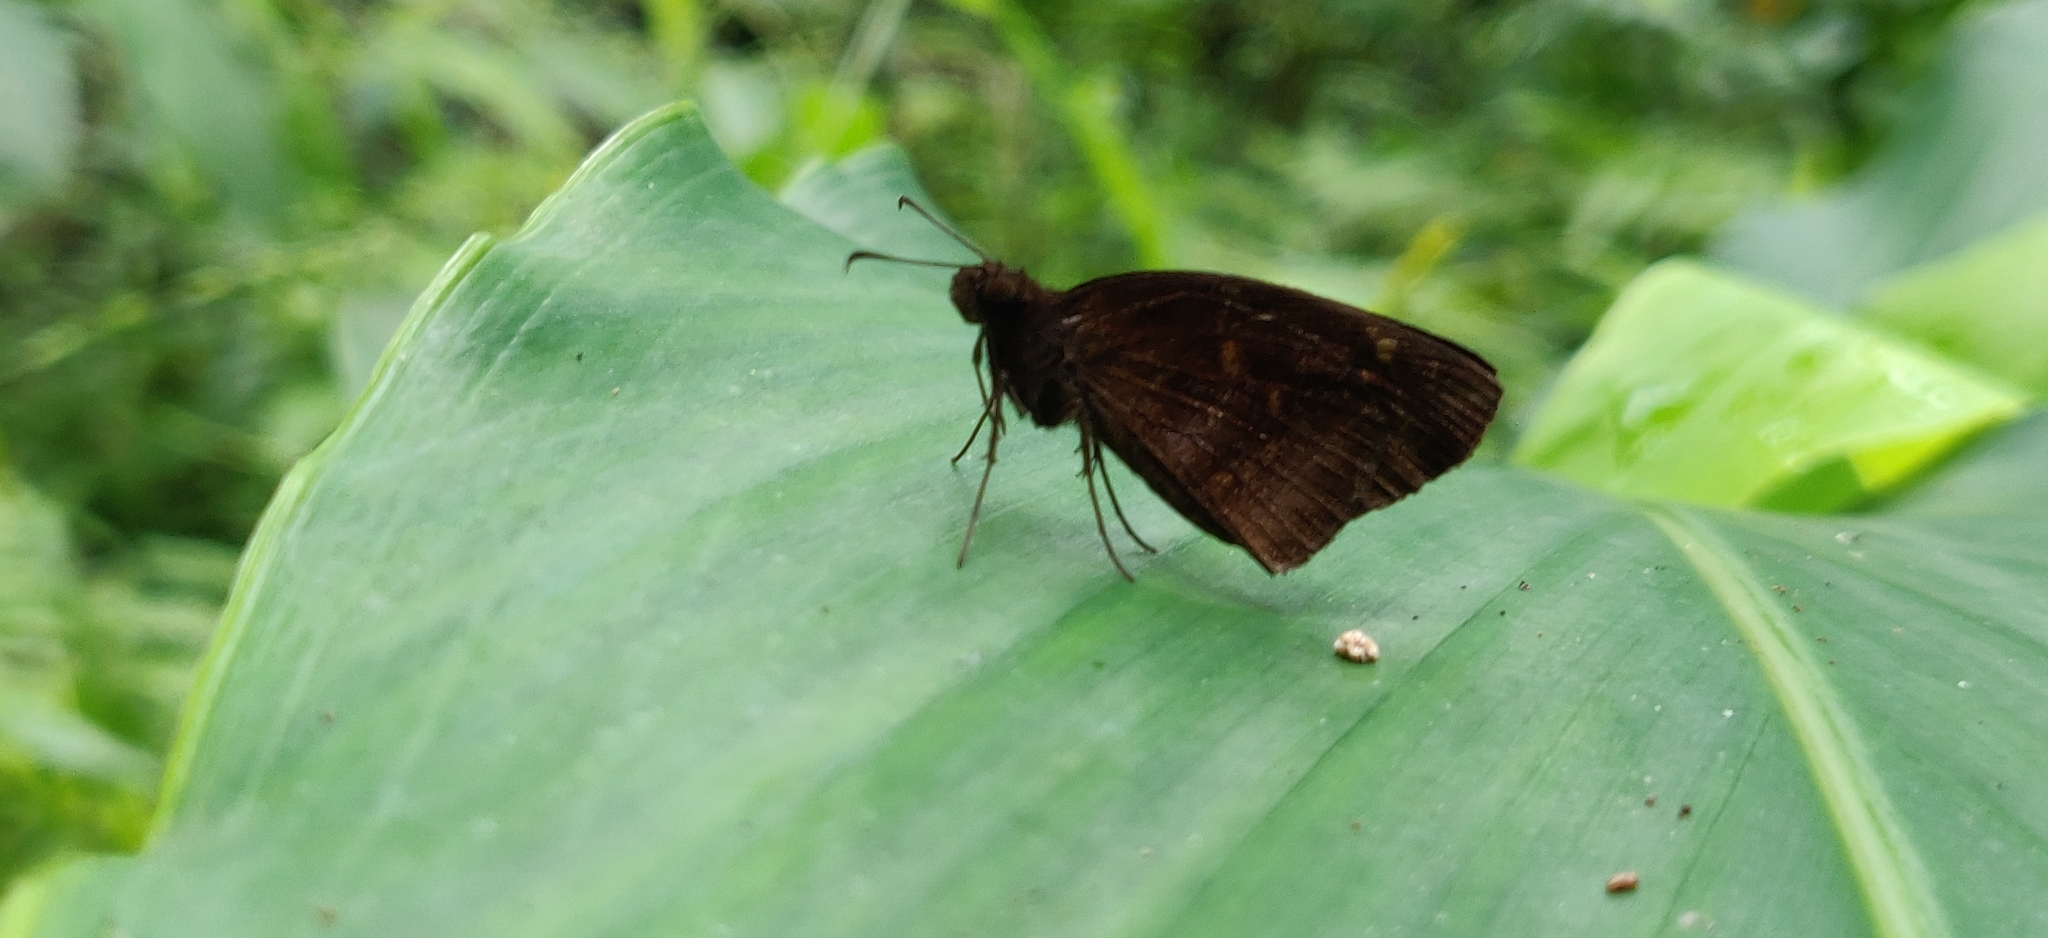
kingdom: Animalia
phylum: Arthropoda
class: Insecta
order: Lepidoptera
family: Hesperiidae
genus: Psolos
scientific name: Psolos fuligo
